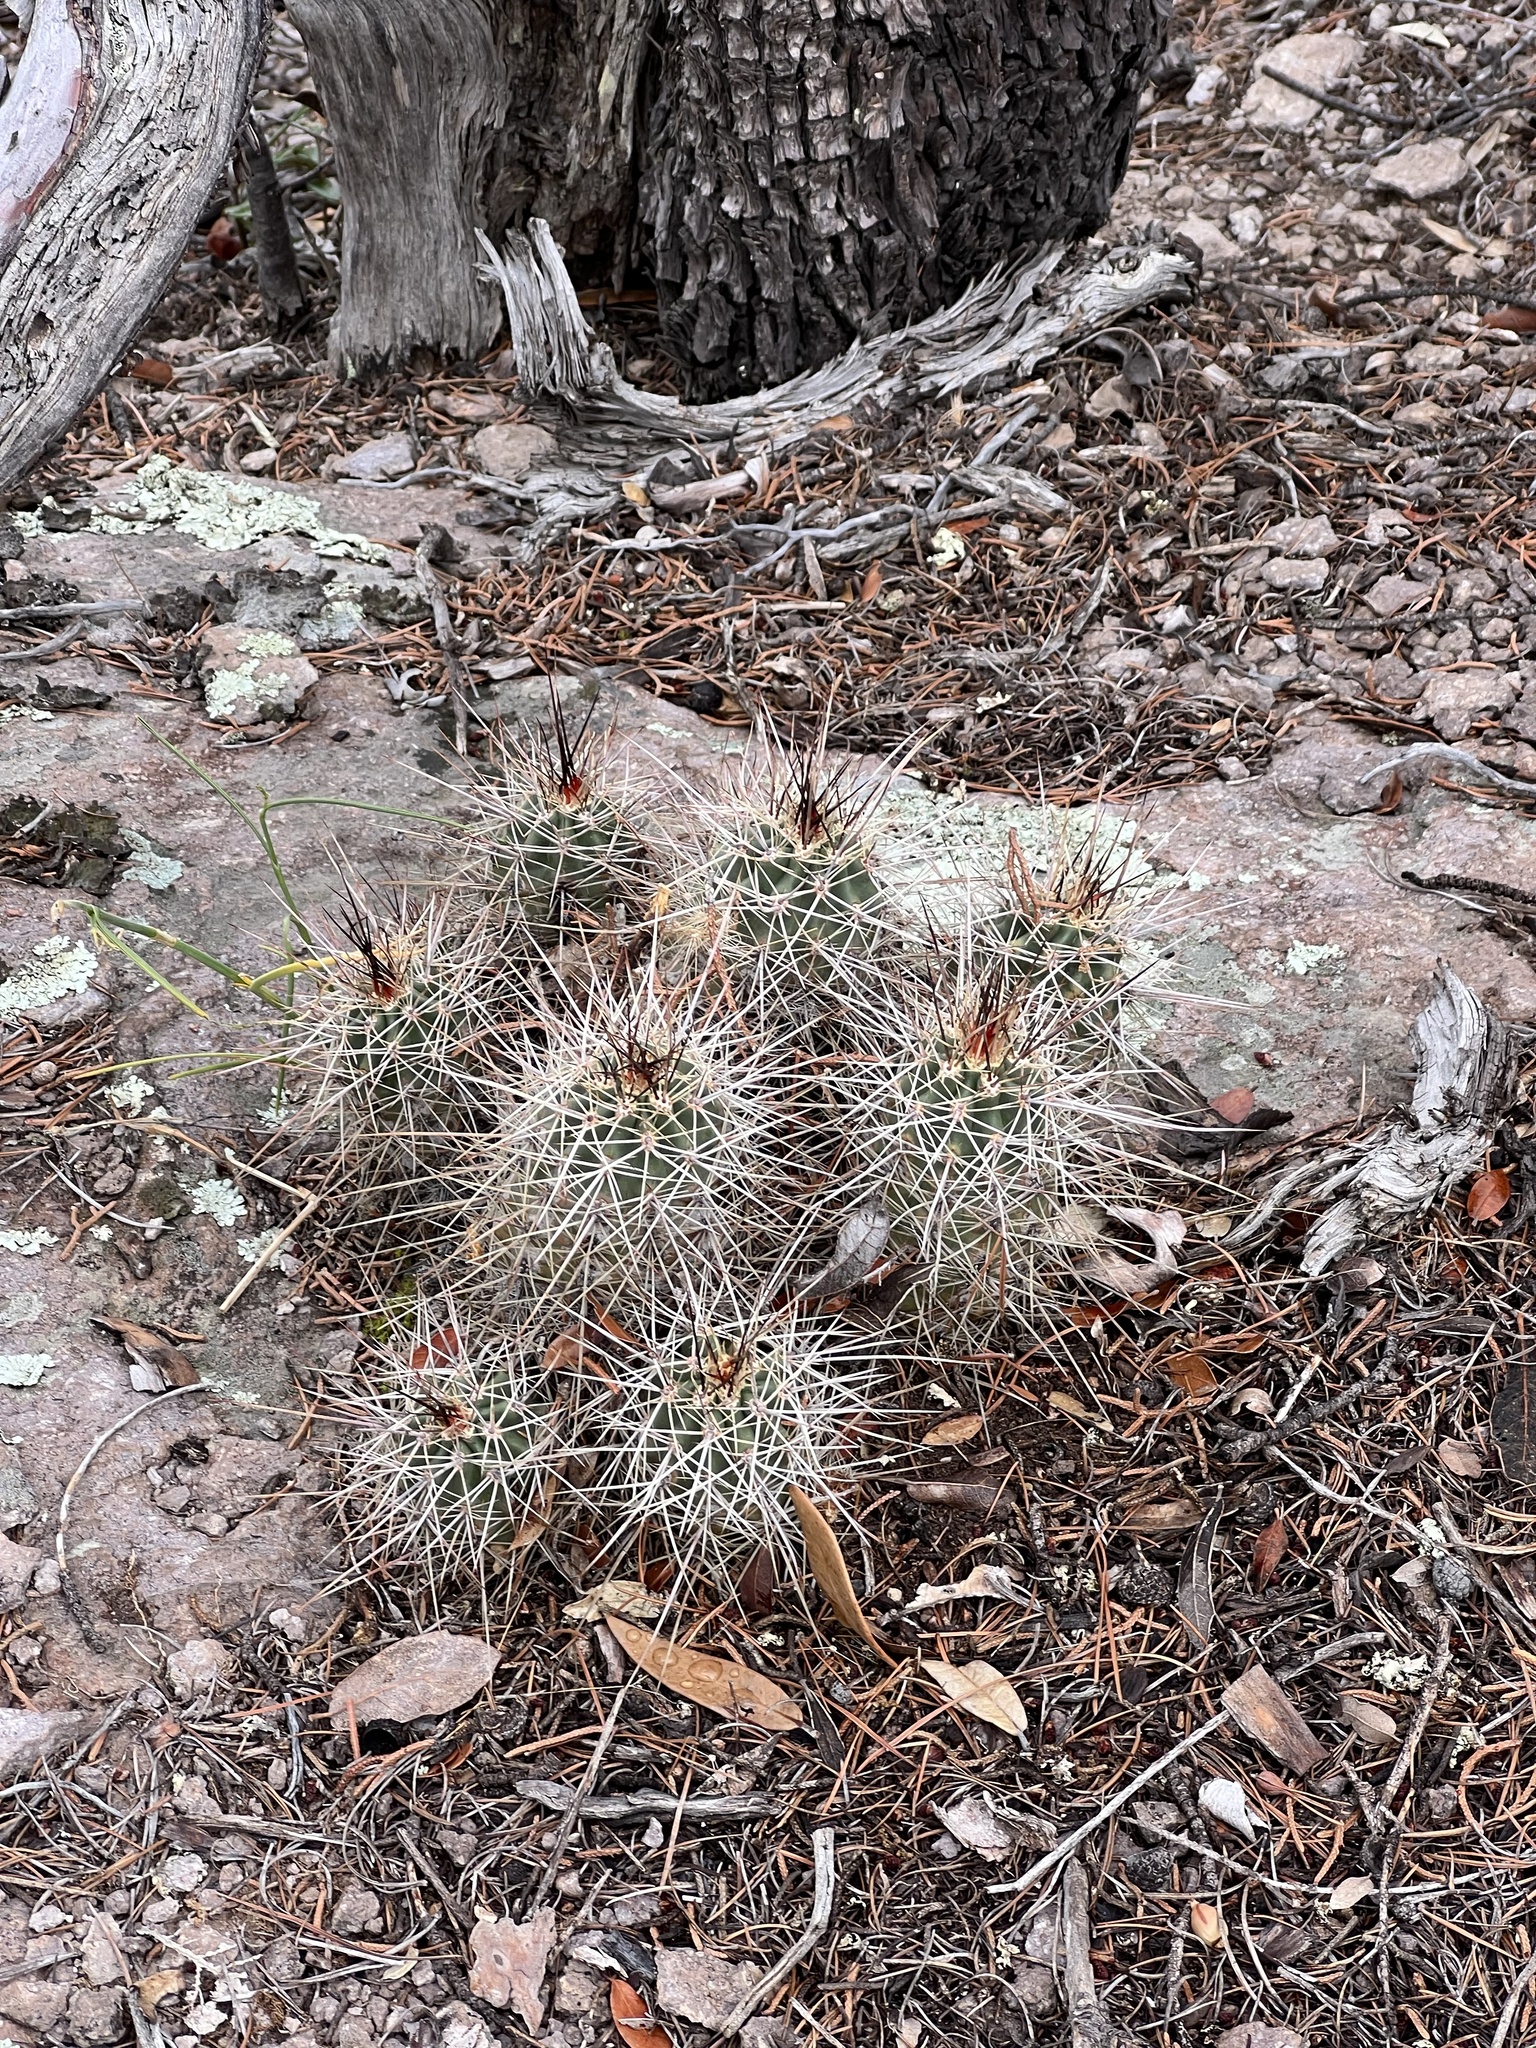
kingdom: Plantae
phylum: Tracheophyta
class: Magnoliopsida
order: Caryophyllales
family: Cactaceae
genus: Echinocereus
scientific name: Echinocereus coccineus
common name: Scarlet hedgehog cactus
